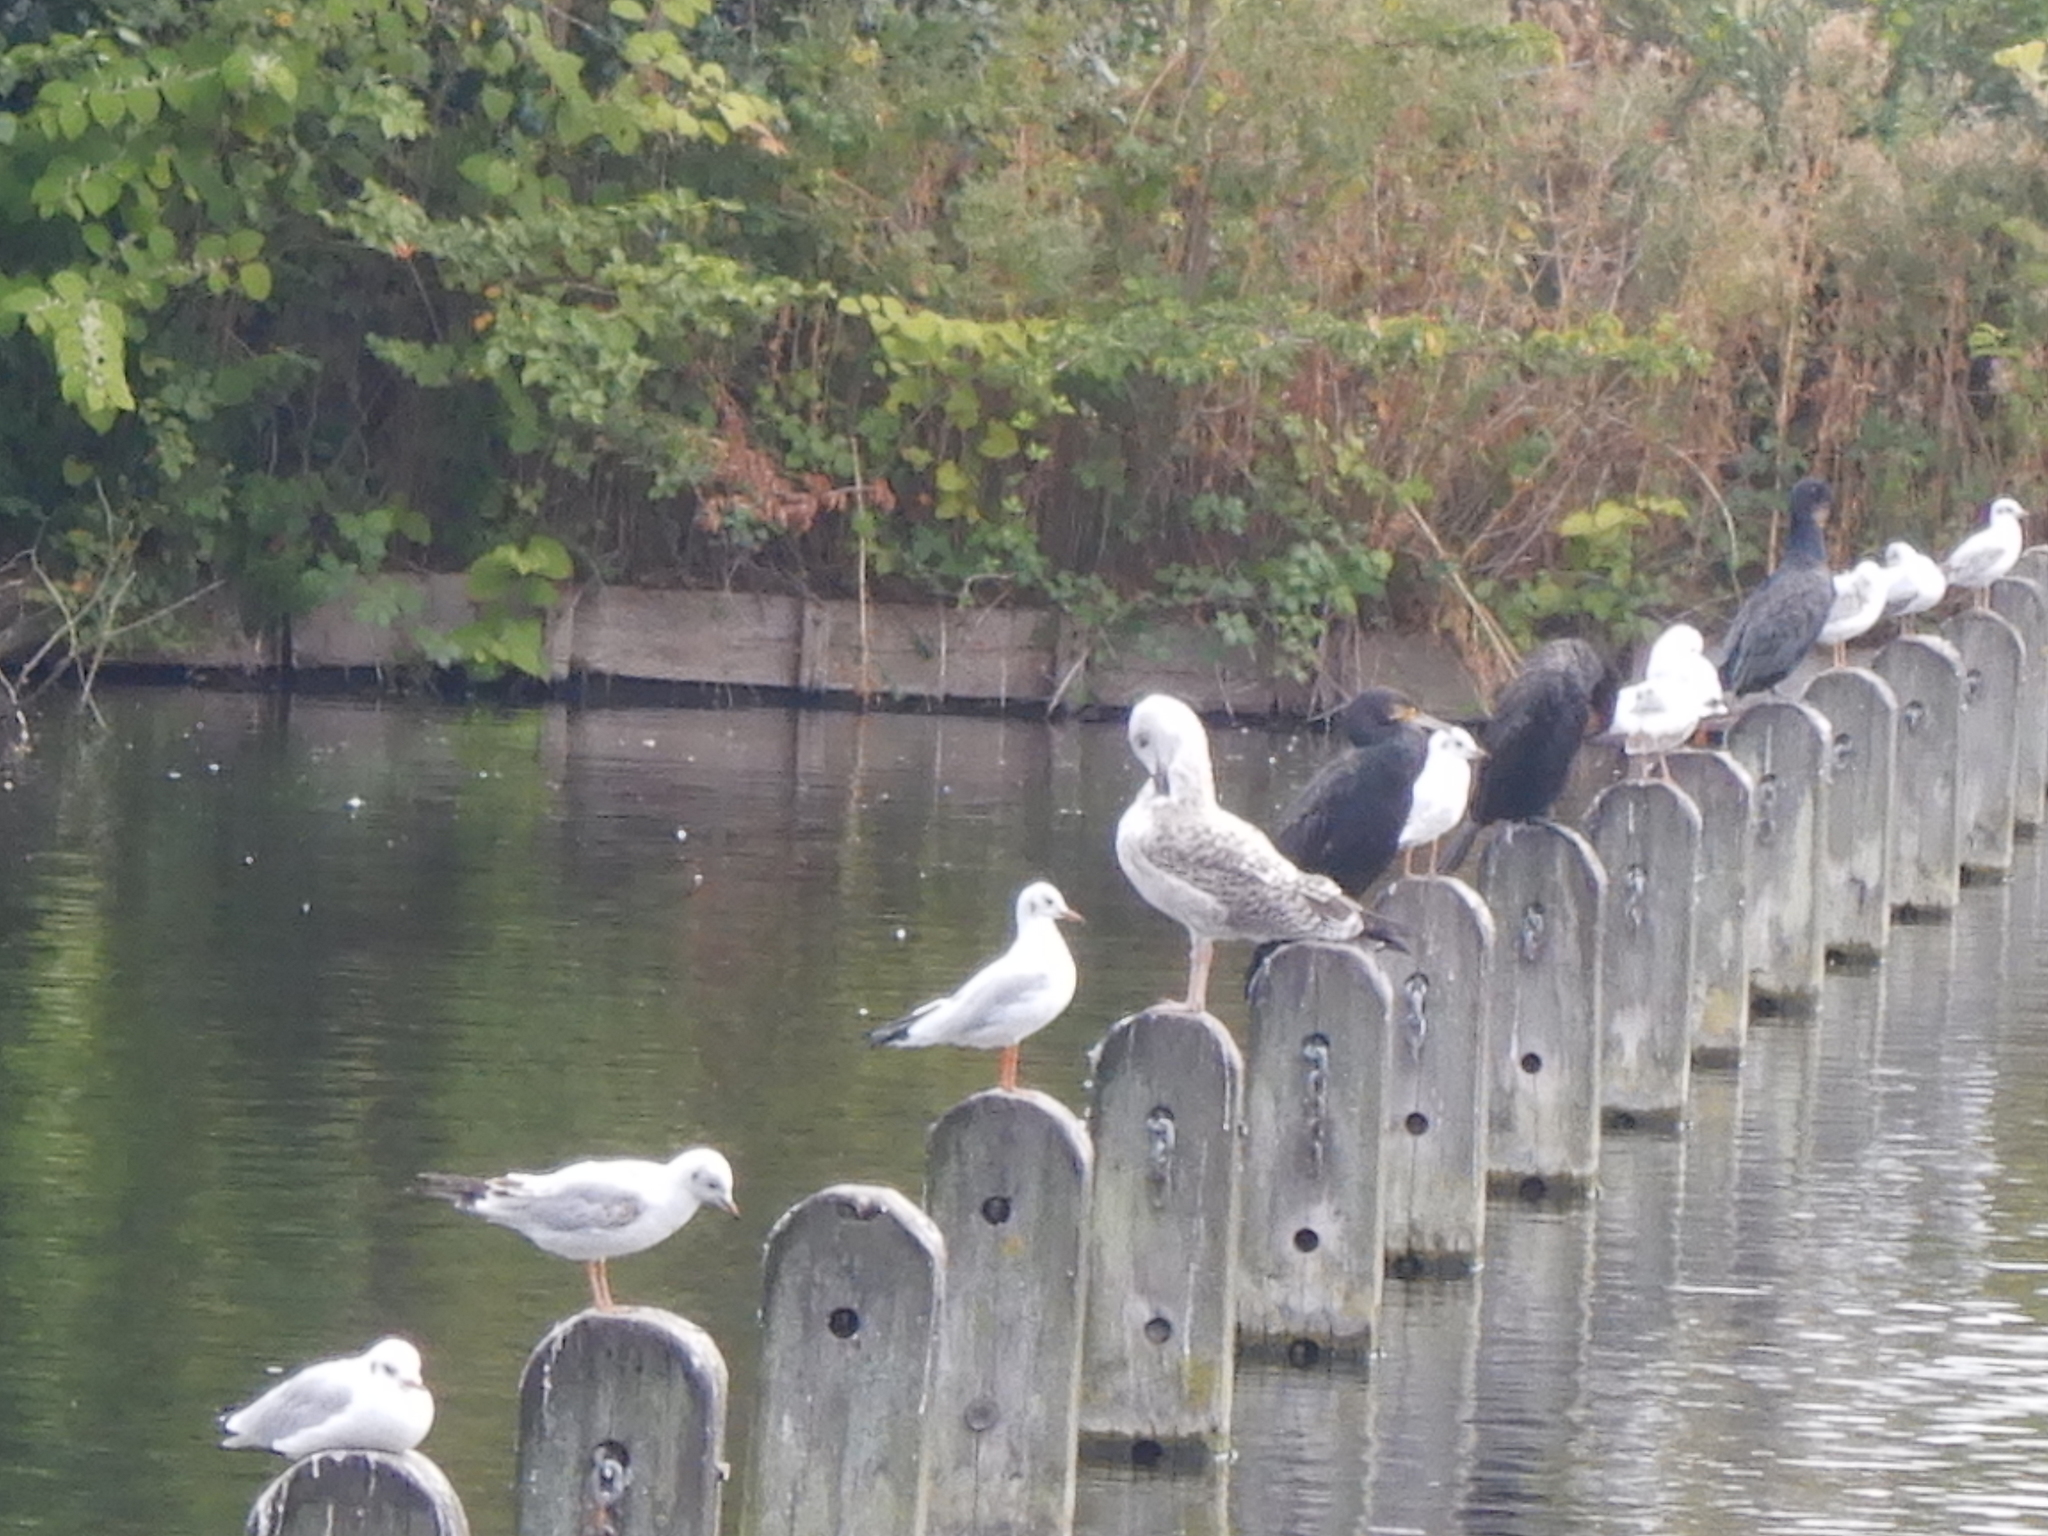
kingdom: Animalia
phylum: Chordata
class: Aves
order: Charadriiformes
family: Laridae
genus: Chroicocephalus
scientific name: Chroicocephalus ridibundus
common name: Black-headed gull
